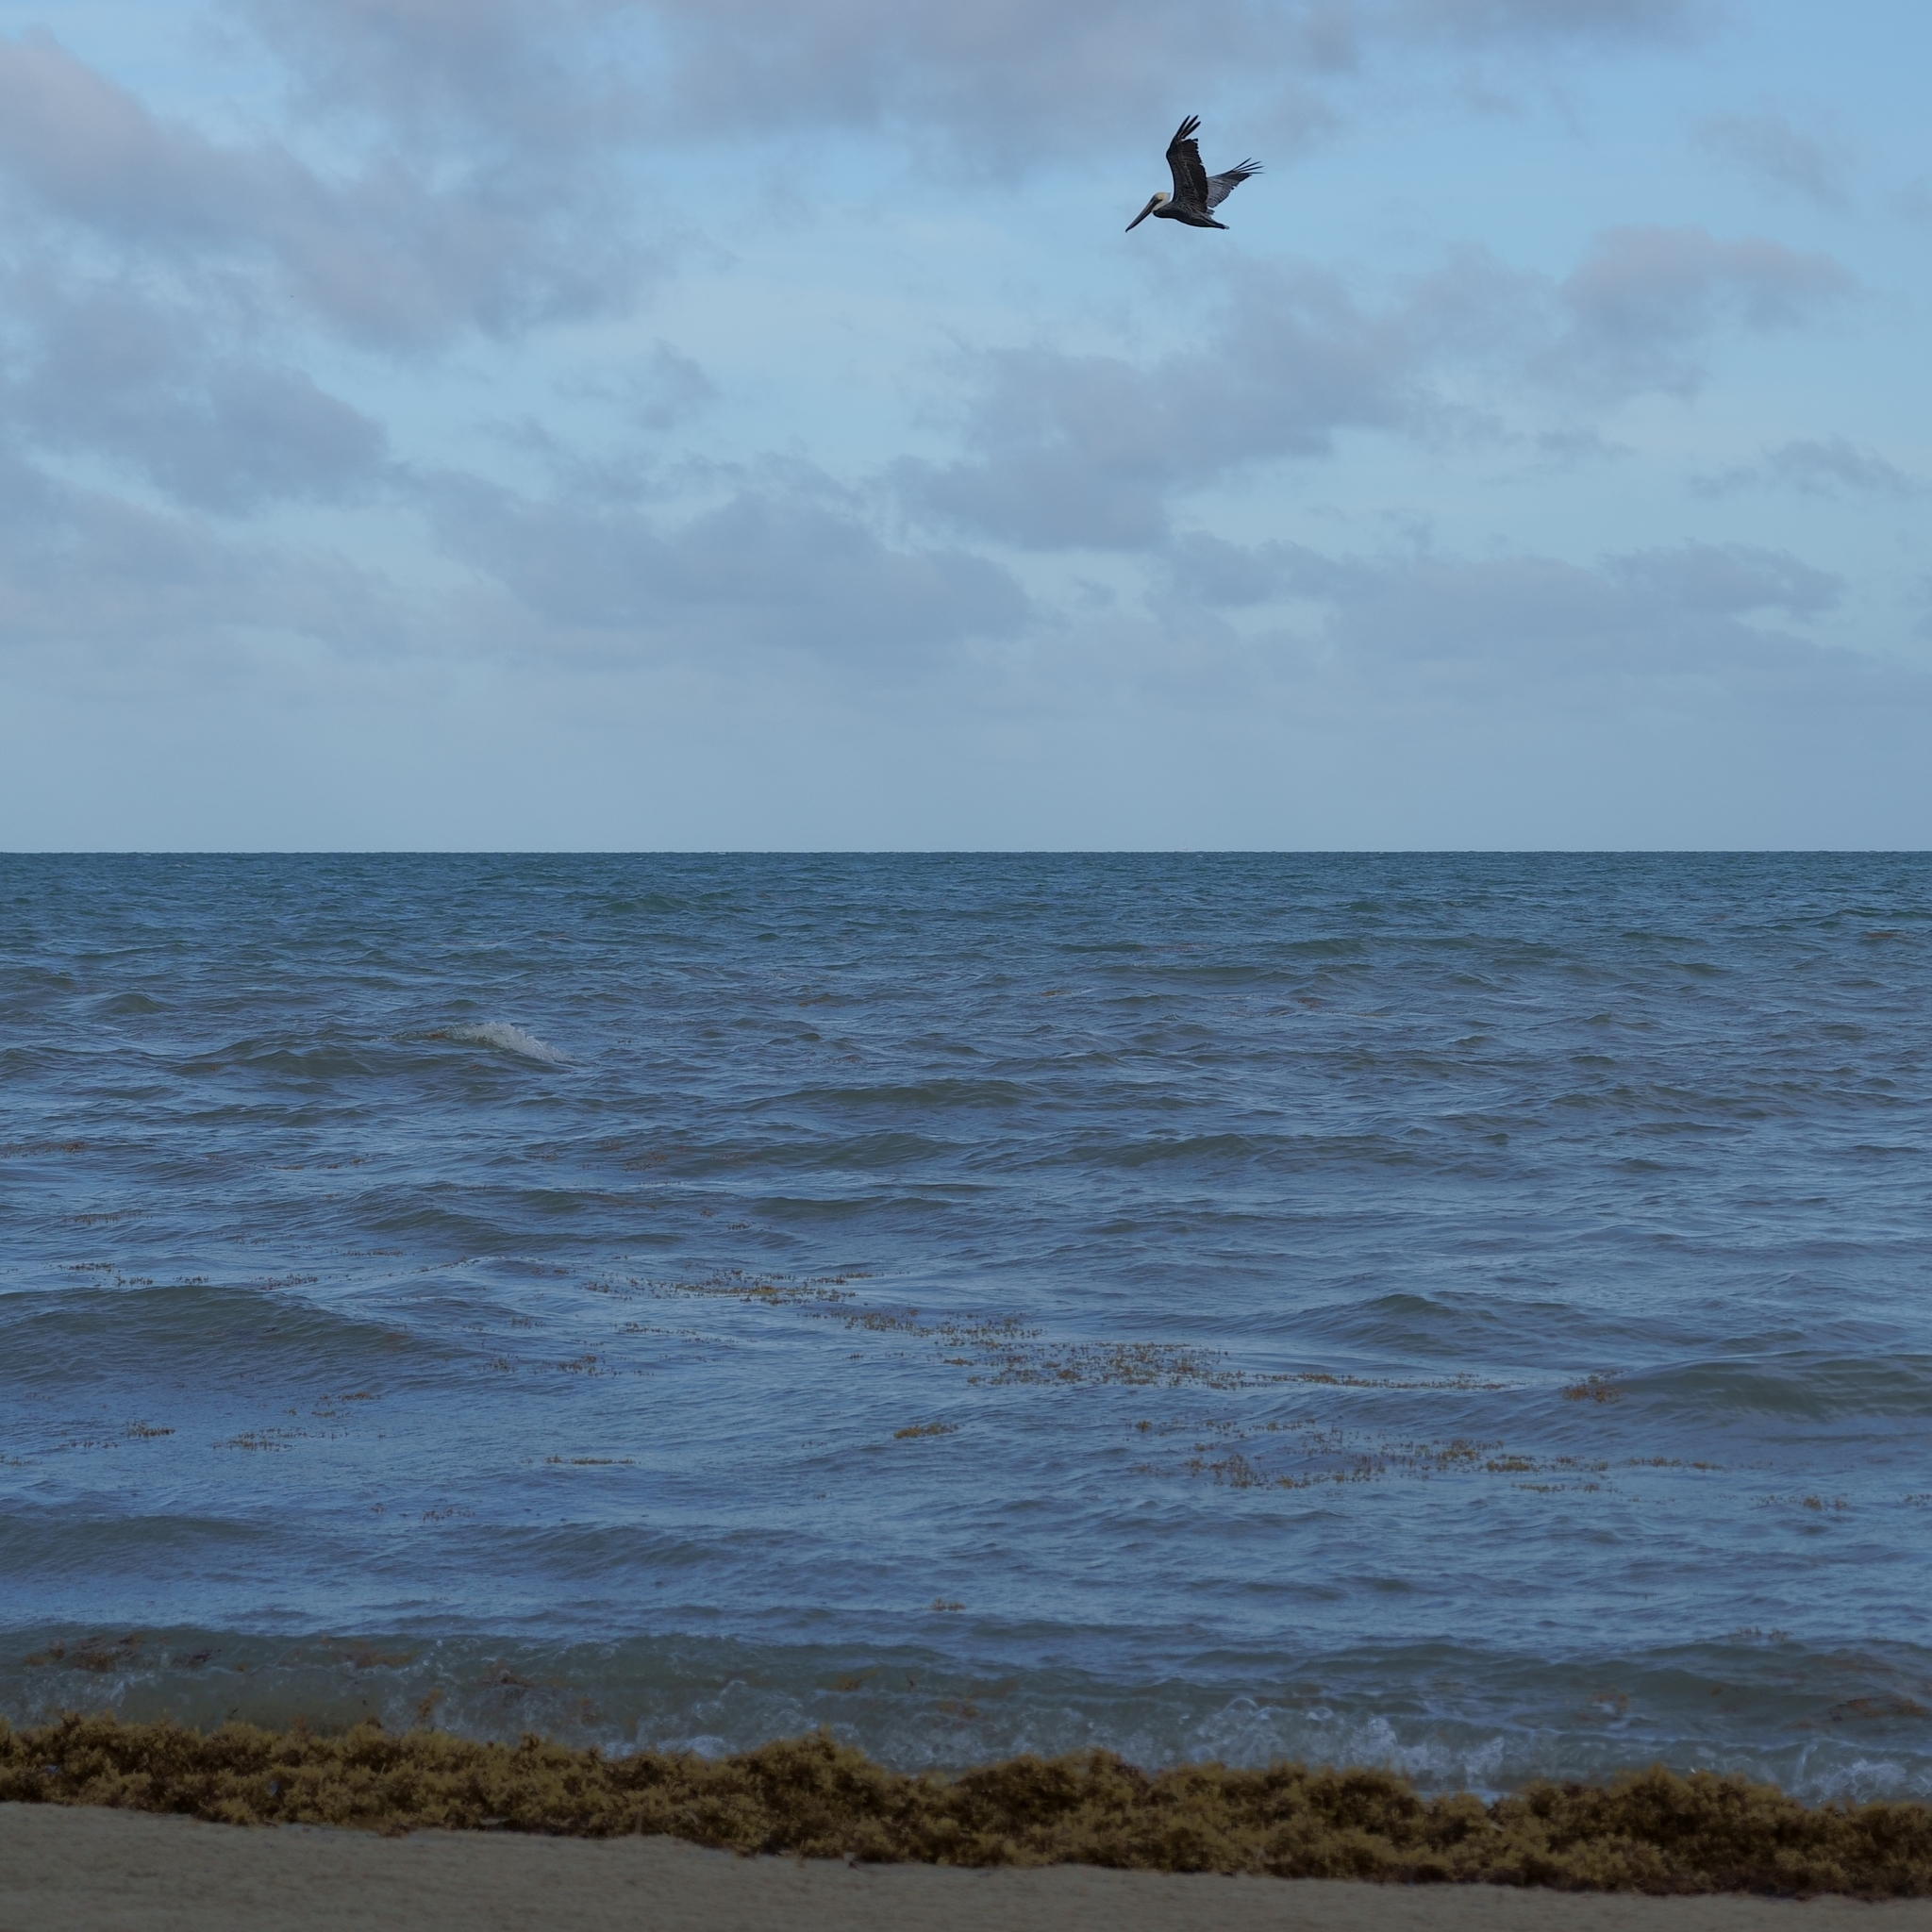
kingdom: Animalia
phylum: Chordata
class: Aves
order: Pelecaniformes
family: Pelecanidae
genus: Pelecanus
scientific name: Pelecanus occidentalis
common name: Brown pelican
